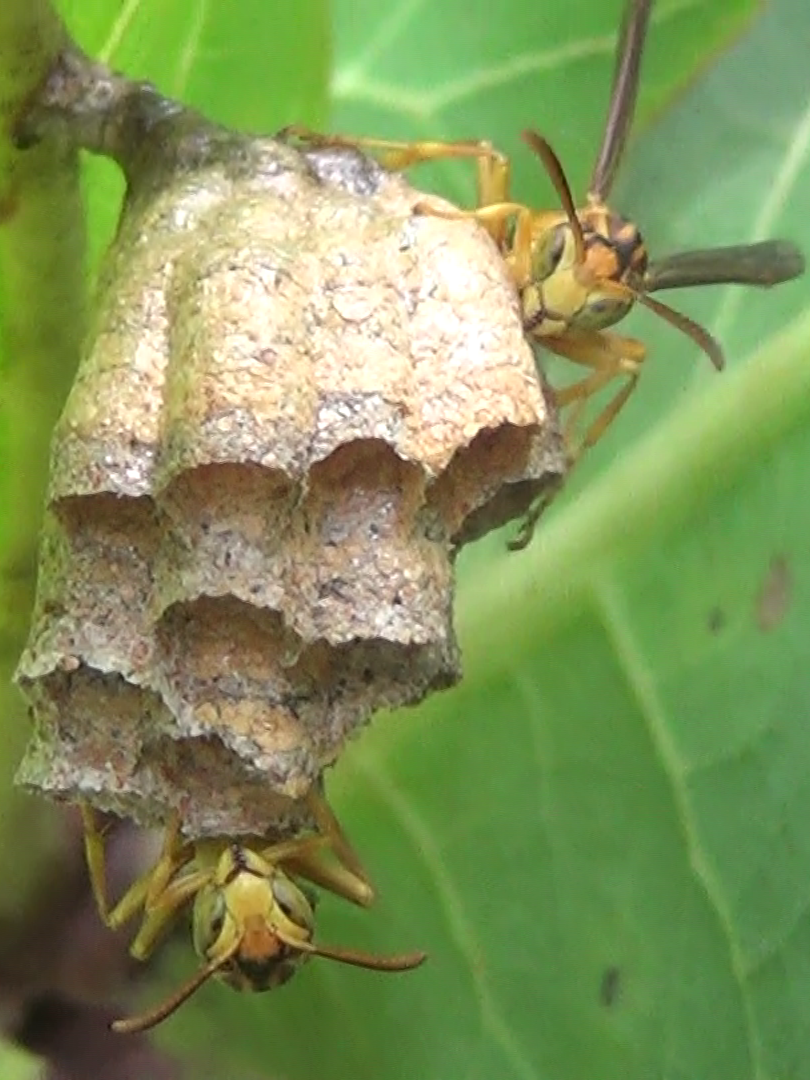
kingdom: Animalia
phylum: Arthropoda
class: Insecta
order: Hymenoptera
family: Vespidae
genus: Mischocyttarus
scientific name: Mischocyttarus cerberus
